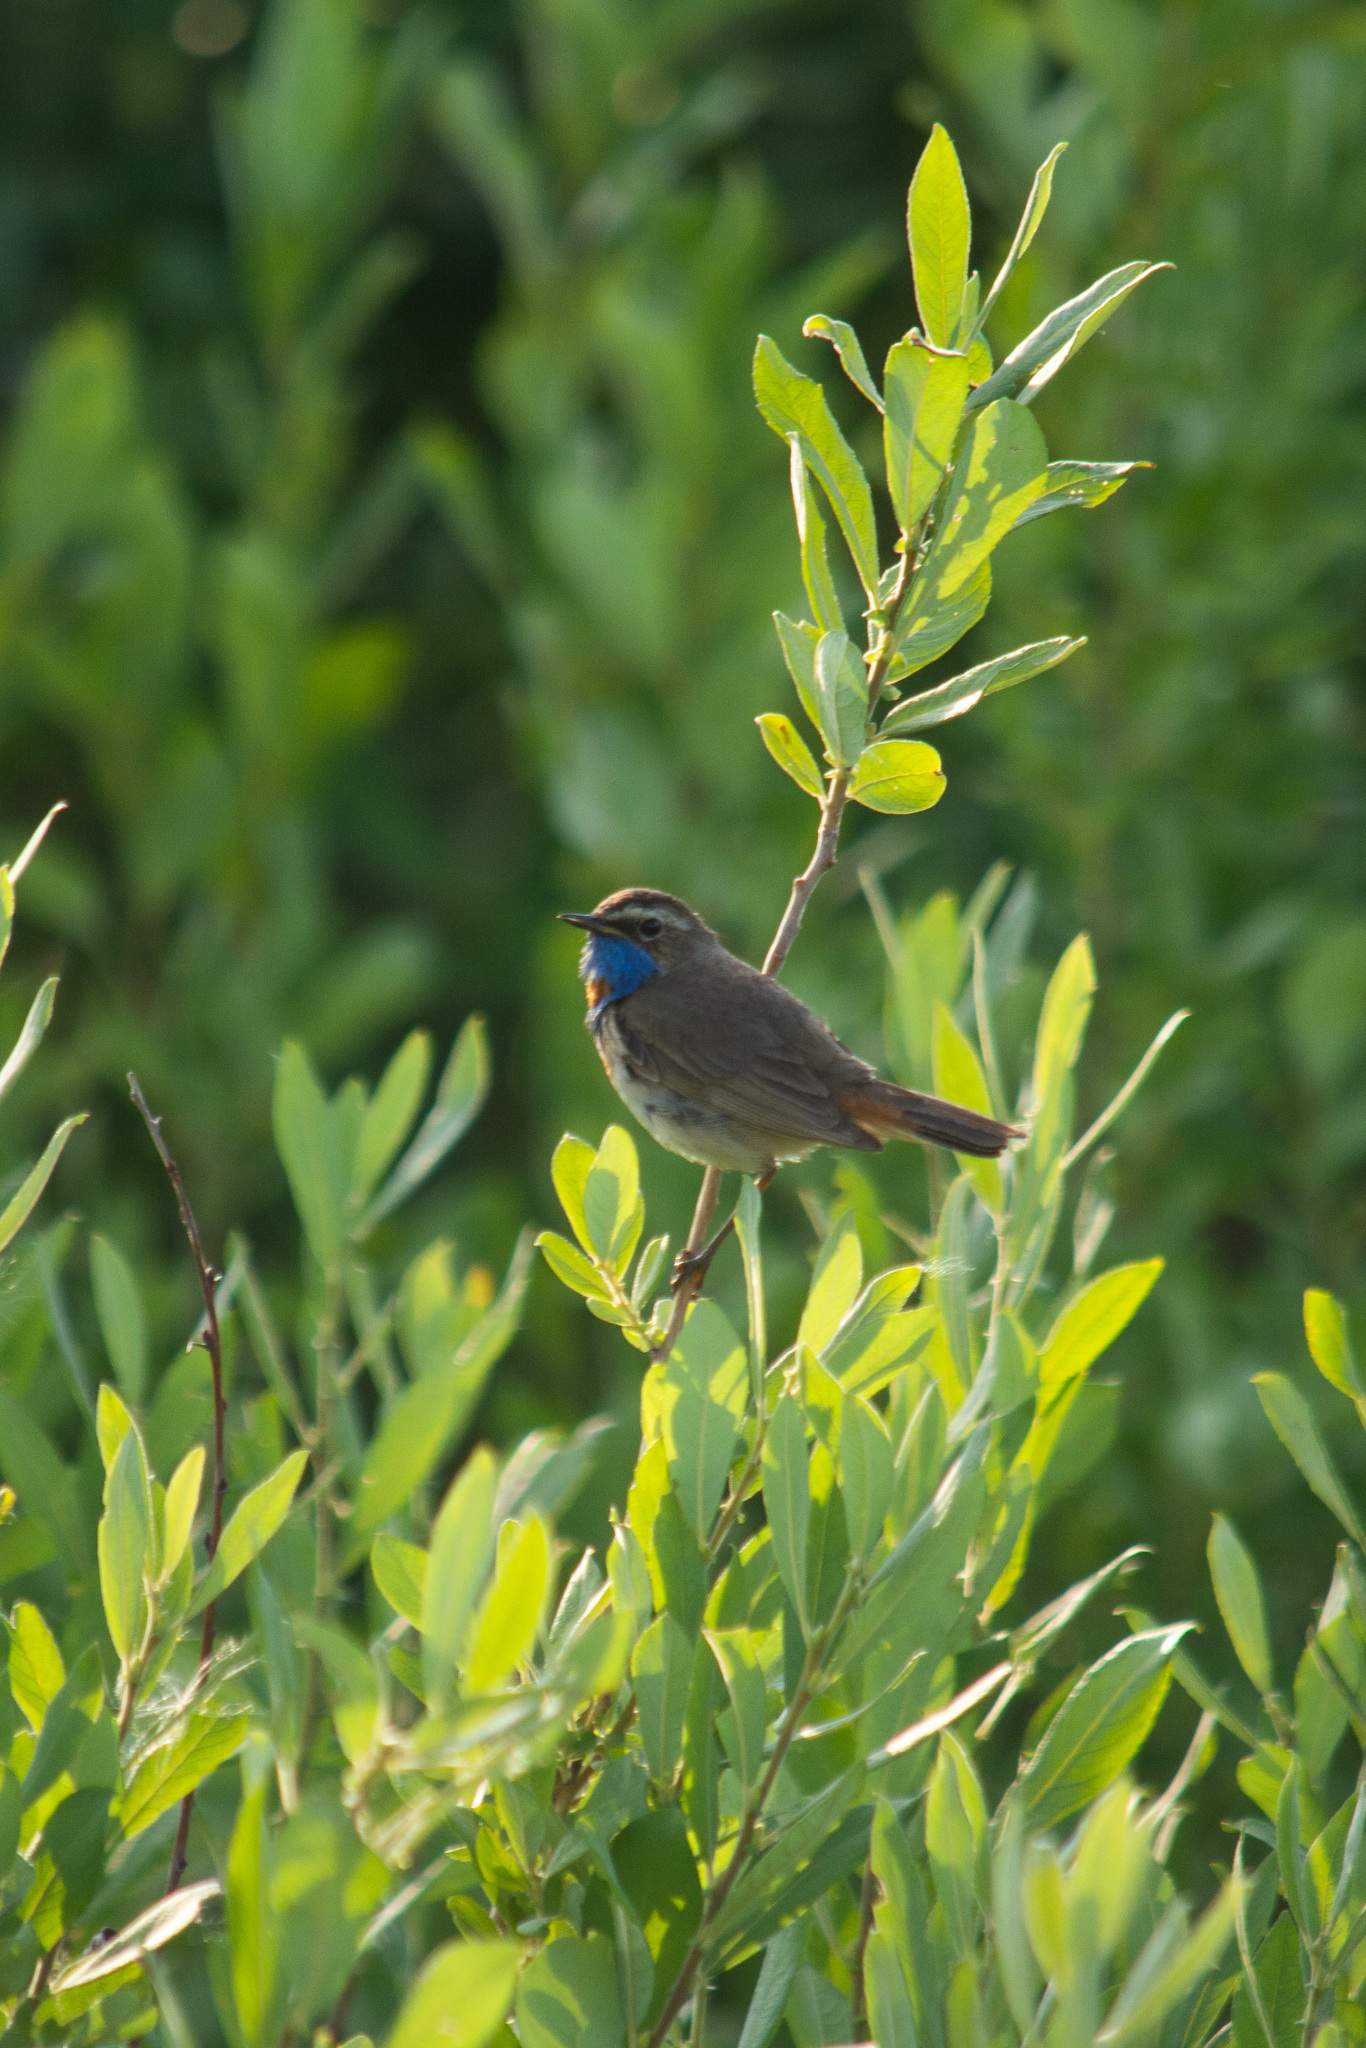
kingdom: Animalia
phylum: Chordata
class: Aves
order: Passeriformes
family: Muscicapidae
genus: Luscinia
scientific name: Luscinia svecica
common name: Bluethroat
